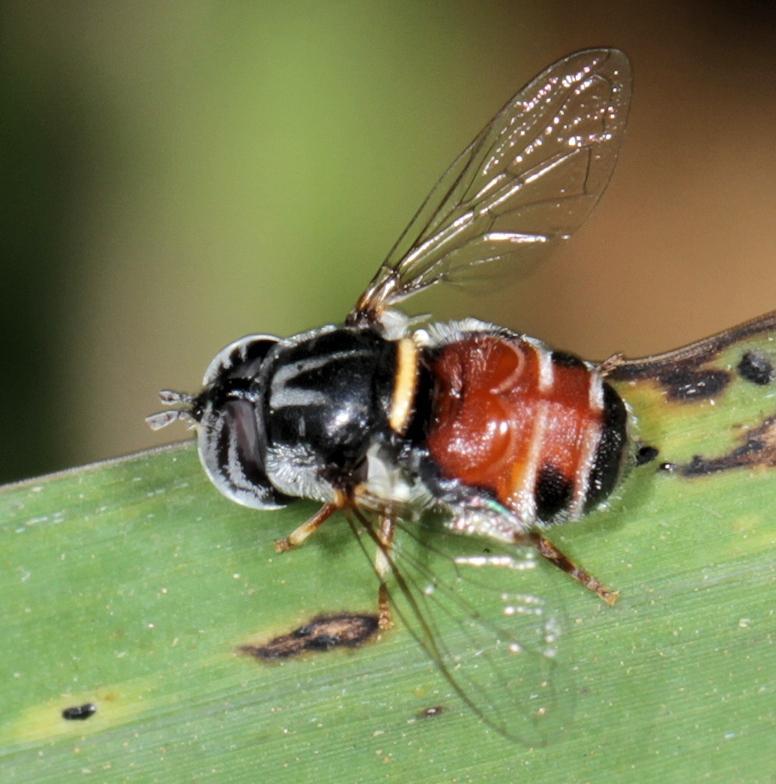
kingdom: Animalia
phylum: Arthropoda
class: Insecta
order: Diptera
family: Syrphidae
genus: Paragus
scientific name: Paragus capricorni
